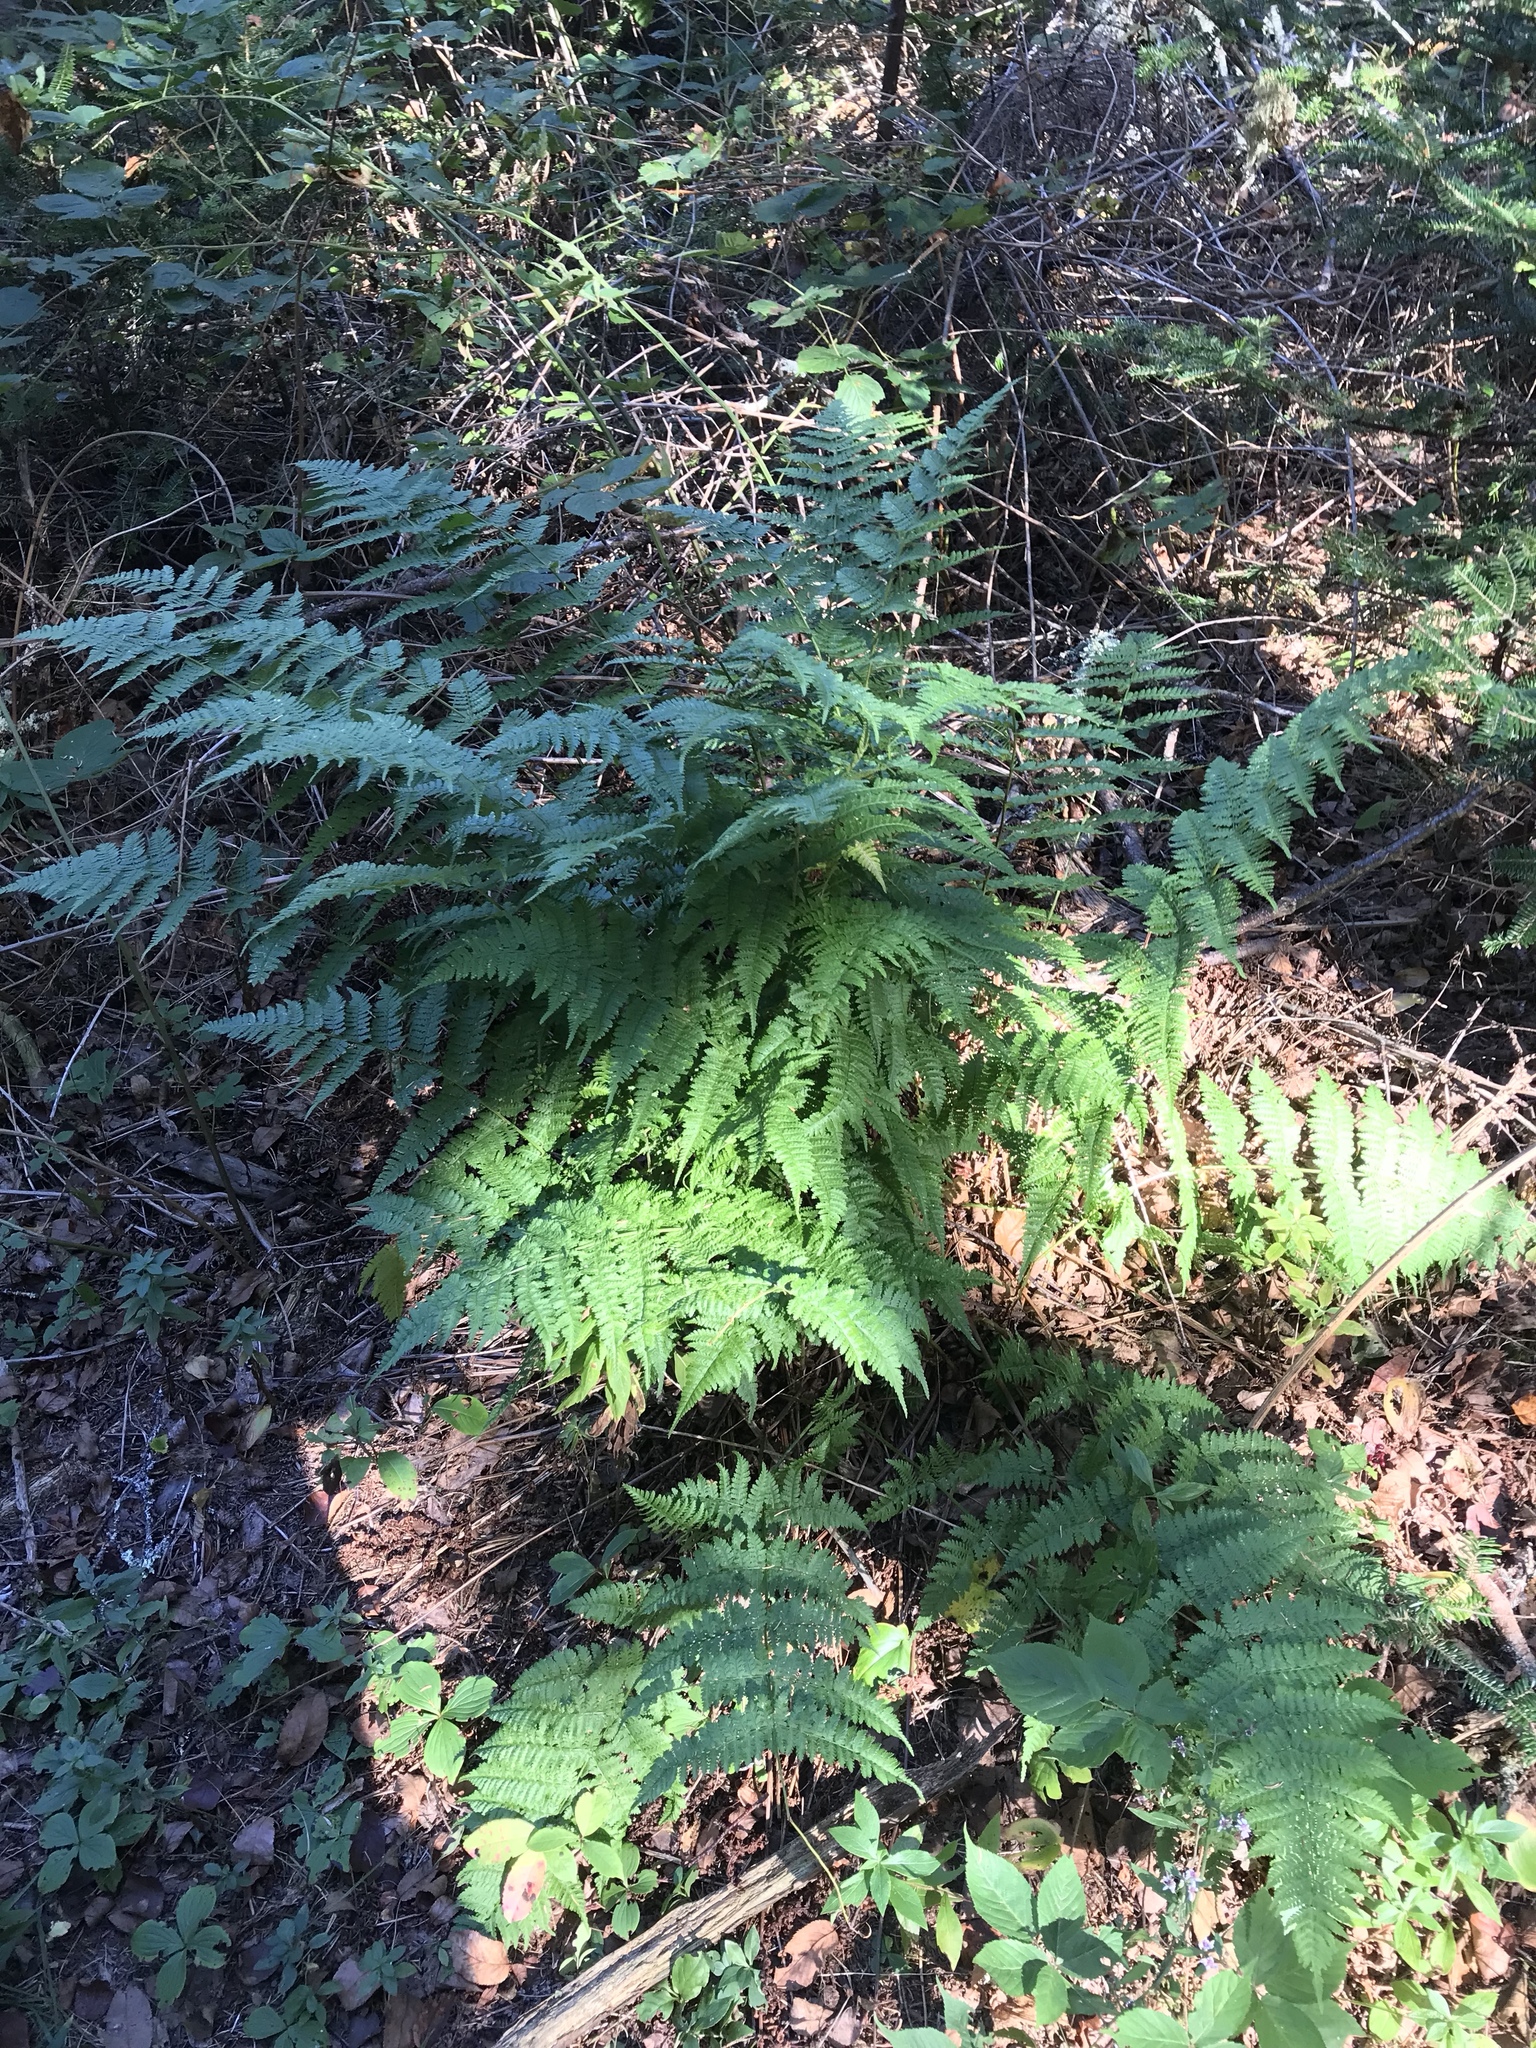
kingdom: Plantae
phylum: Tracheophyta
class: Polypodiopsida
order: Polypodiales
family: Dryopteridaceae
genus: Dryopteris
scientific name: Dryopteris intermedia
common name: Evergreen wood fern
